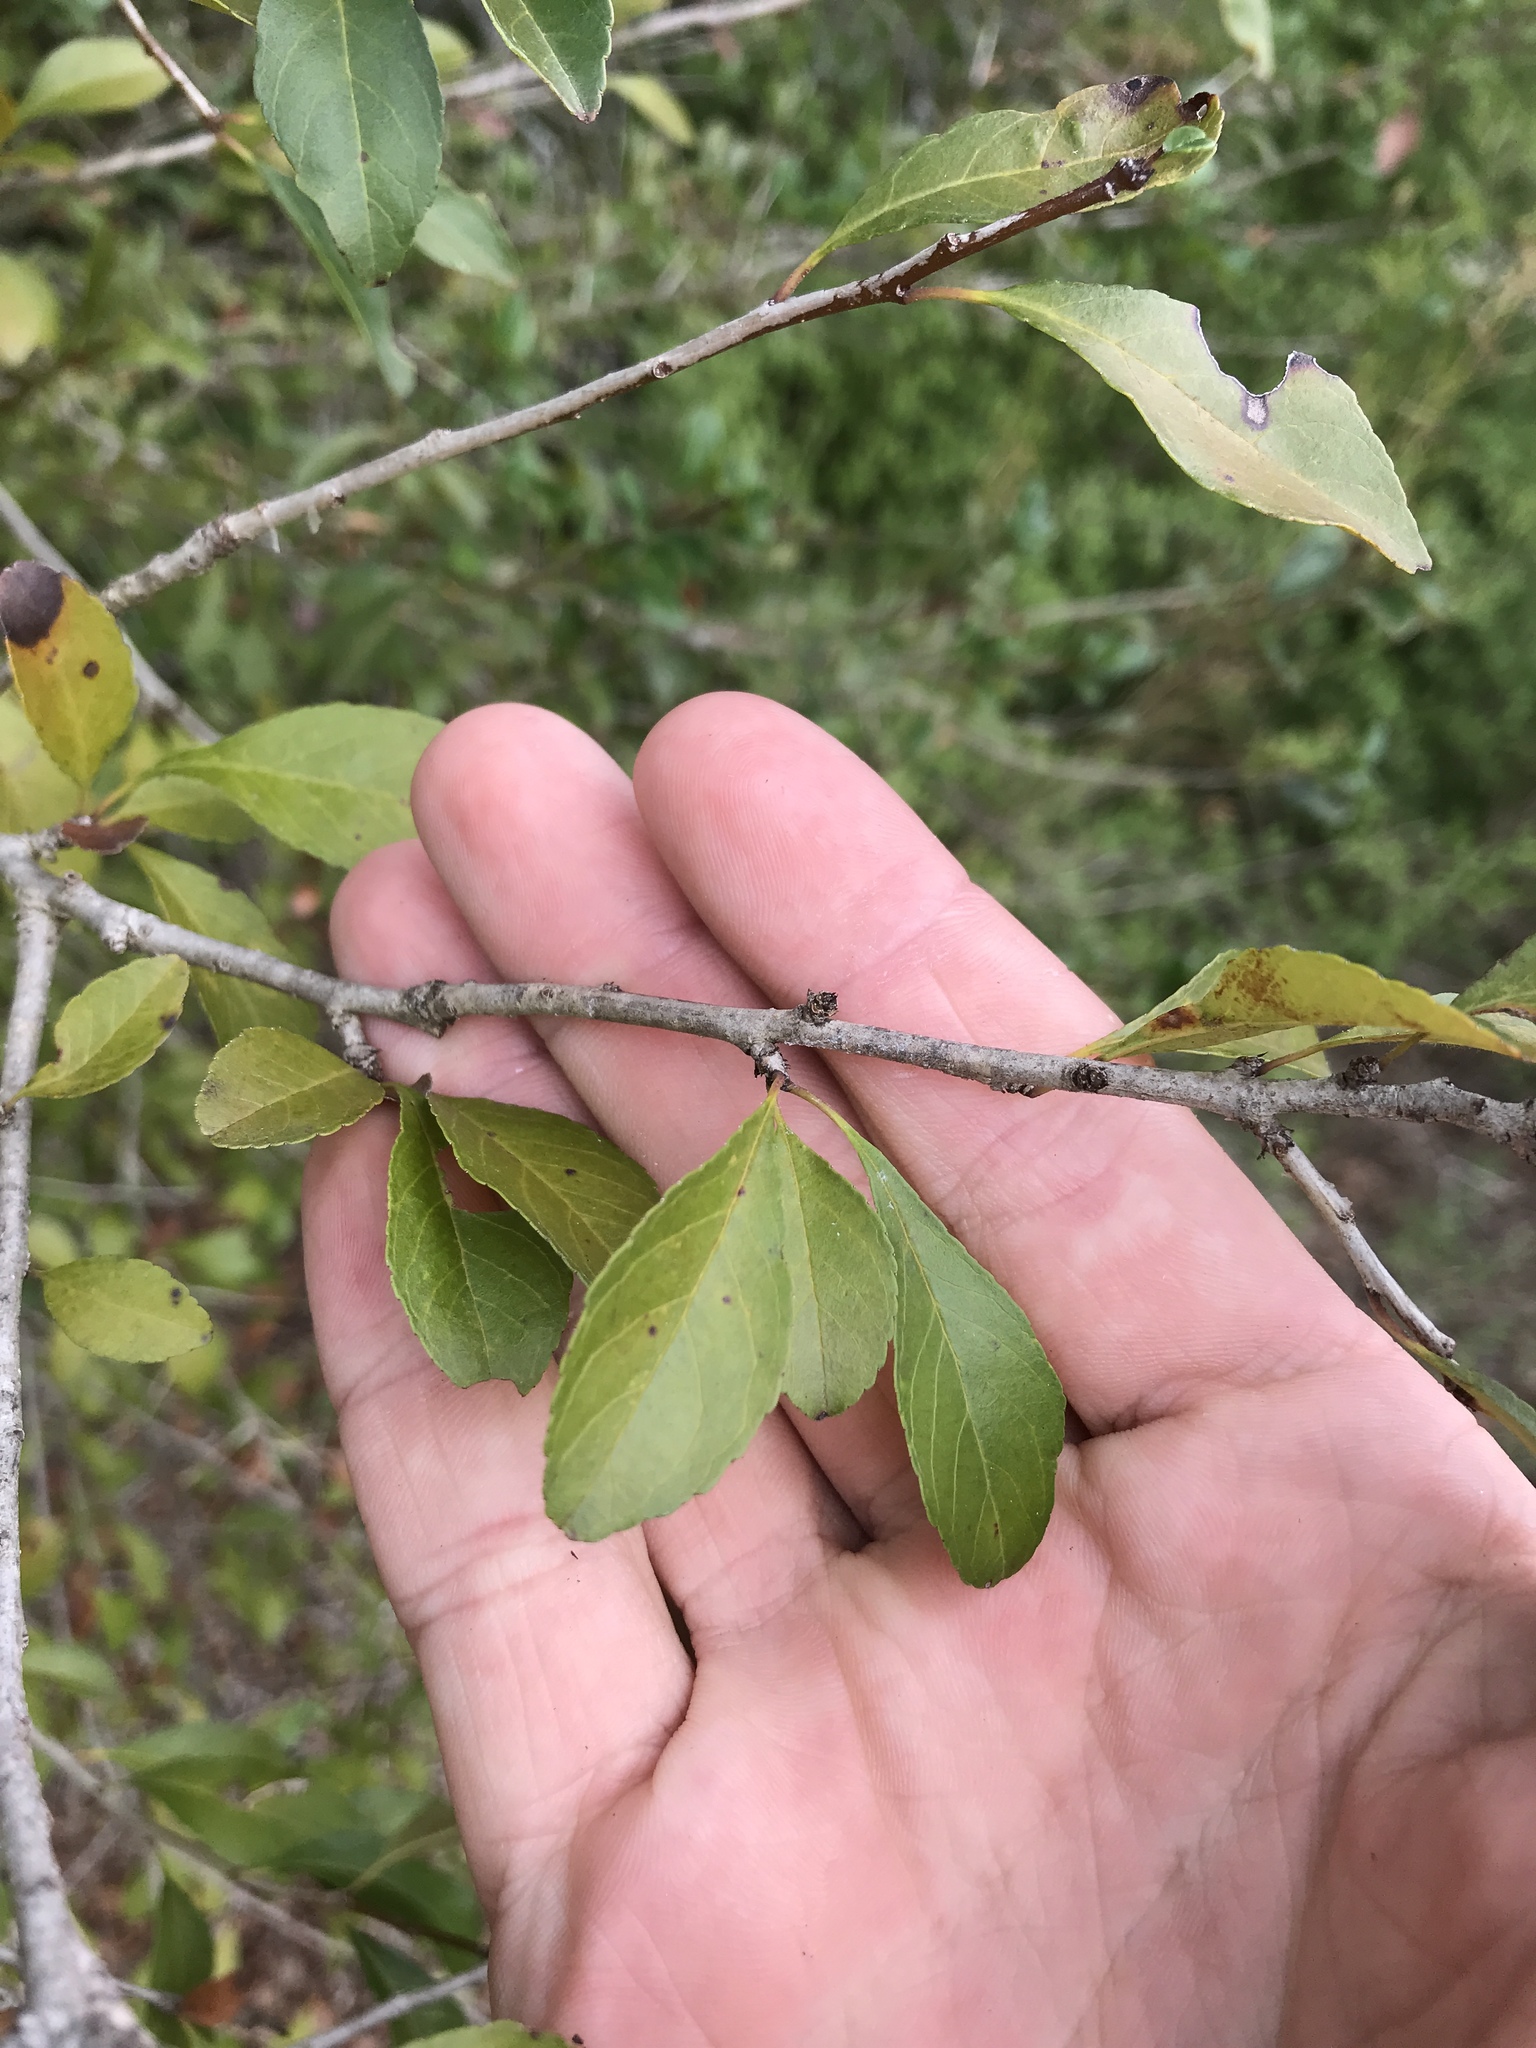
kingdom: Plantae
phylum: Tracheophyta
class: Magnoliopsida
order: Aquifoliales
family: Aquifoliaceae
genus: Ilex
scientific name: Ilex decidua
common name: Possum-haw
